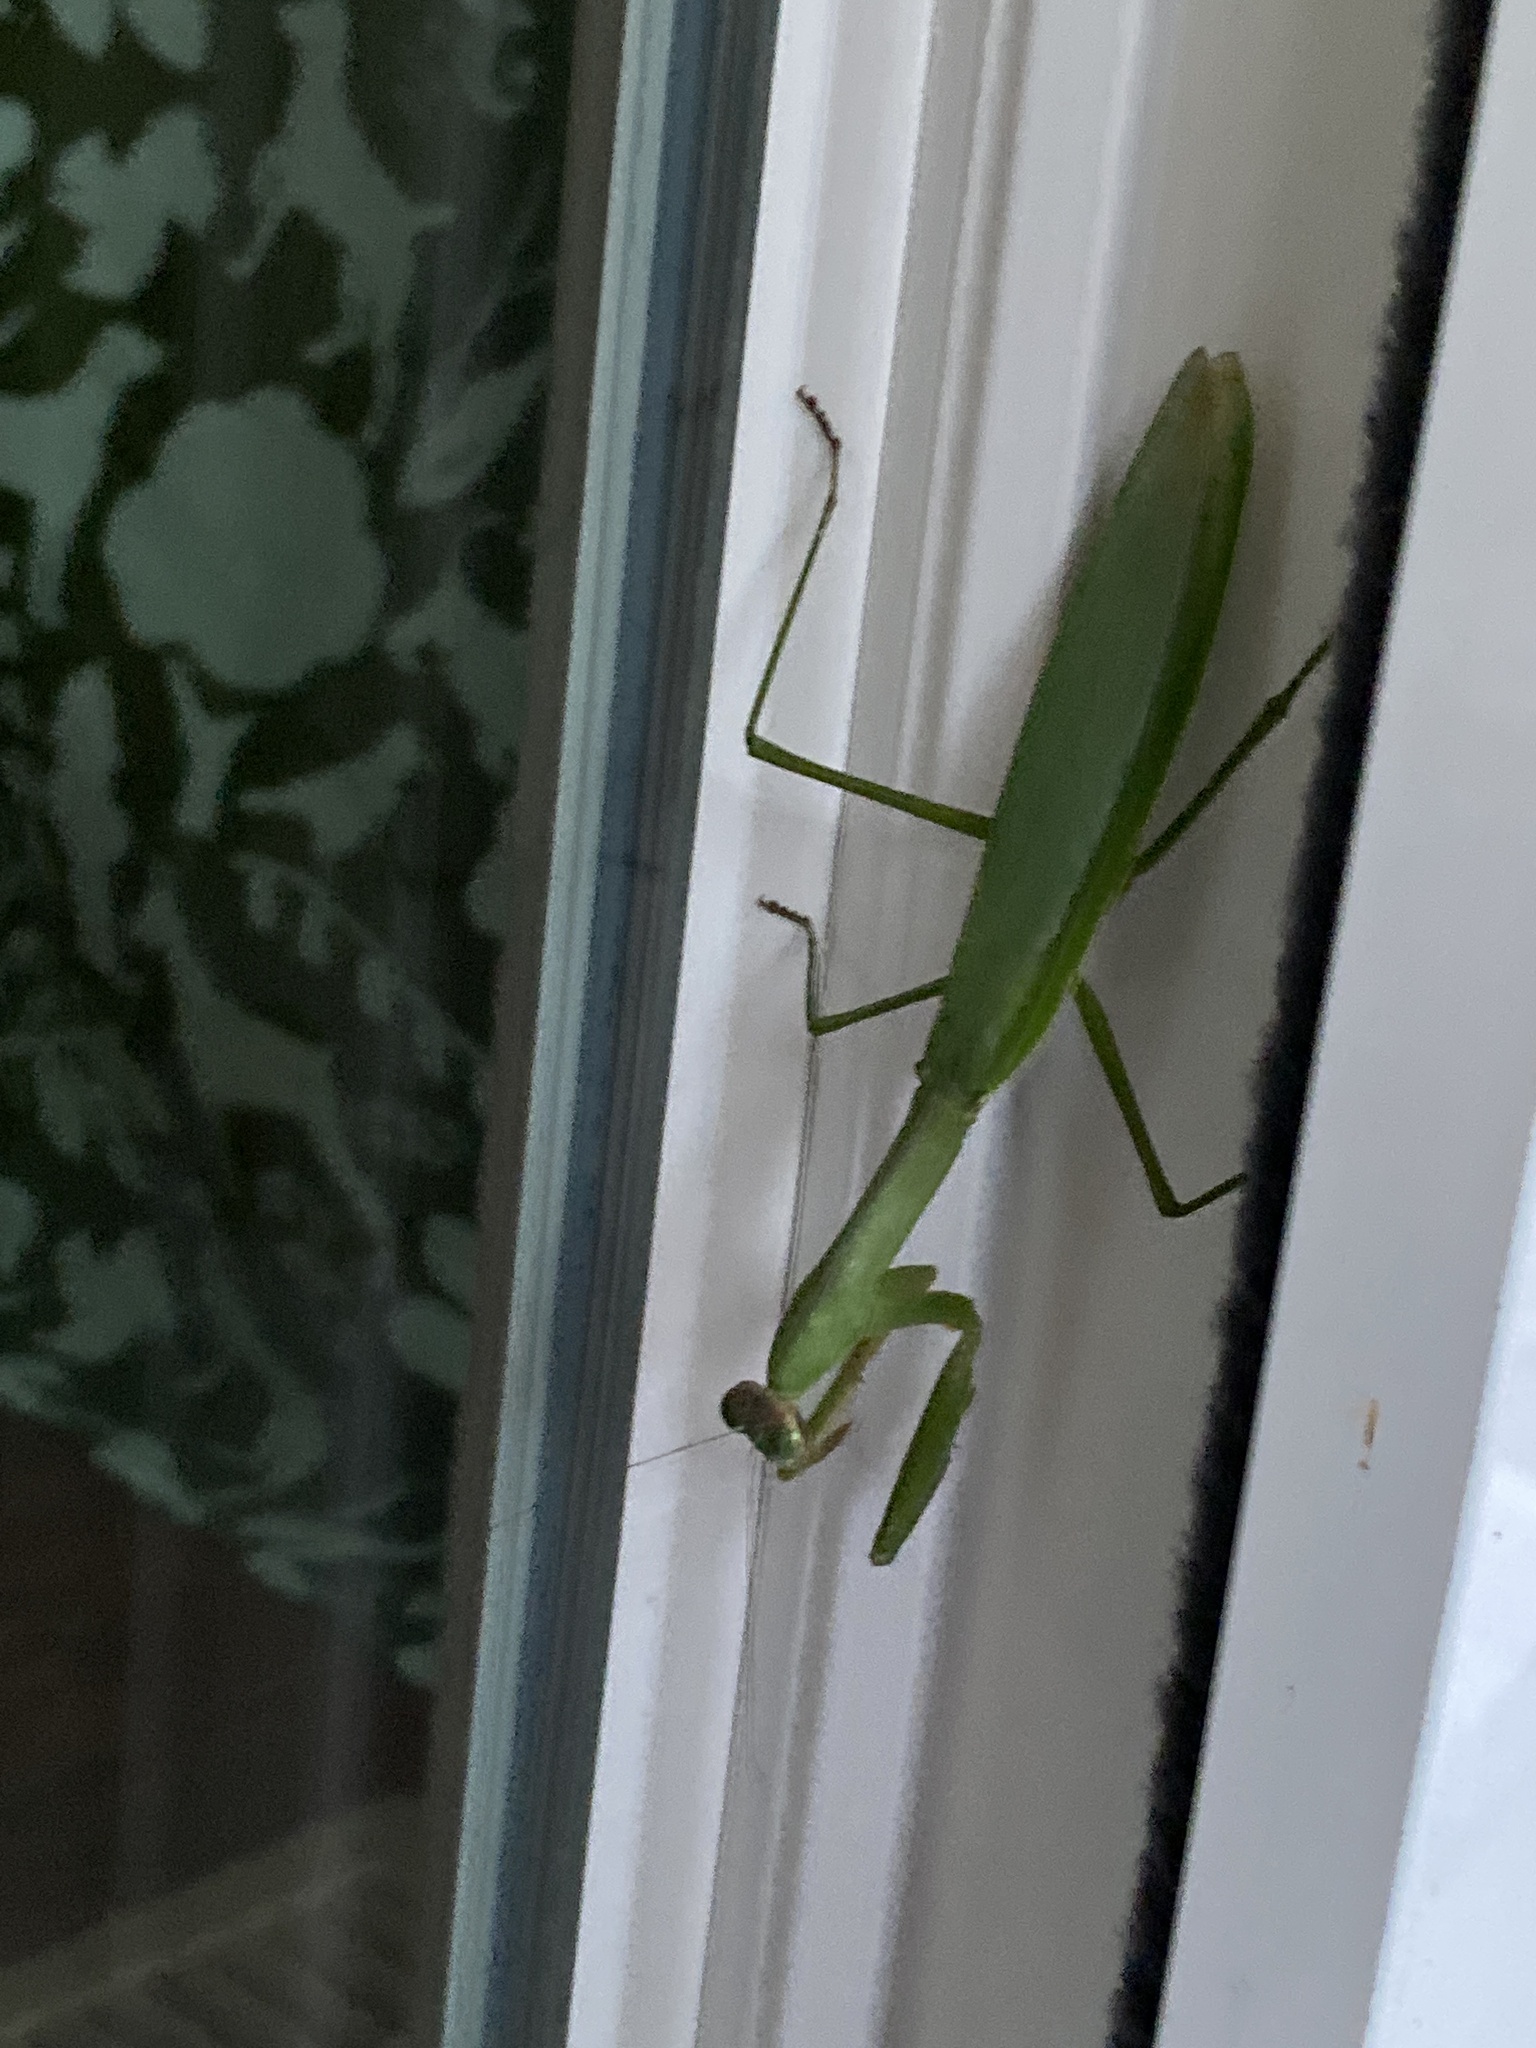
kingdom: Animalia
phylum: Arthropoda
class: Insecta
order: Mantodea
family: Mantidae
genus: Tenodera
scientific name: Tenodera sinensis
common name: Chinese mantis
